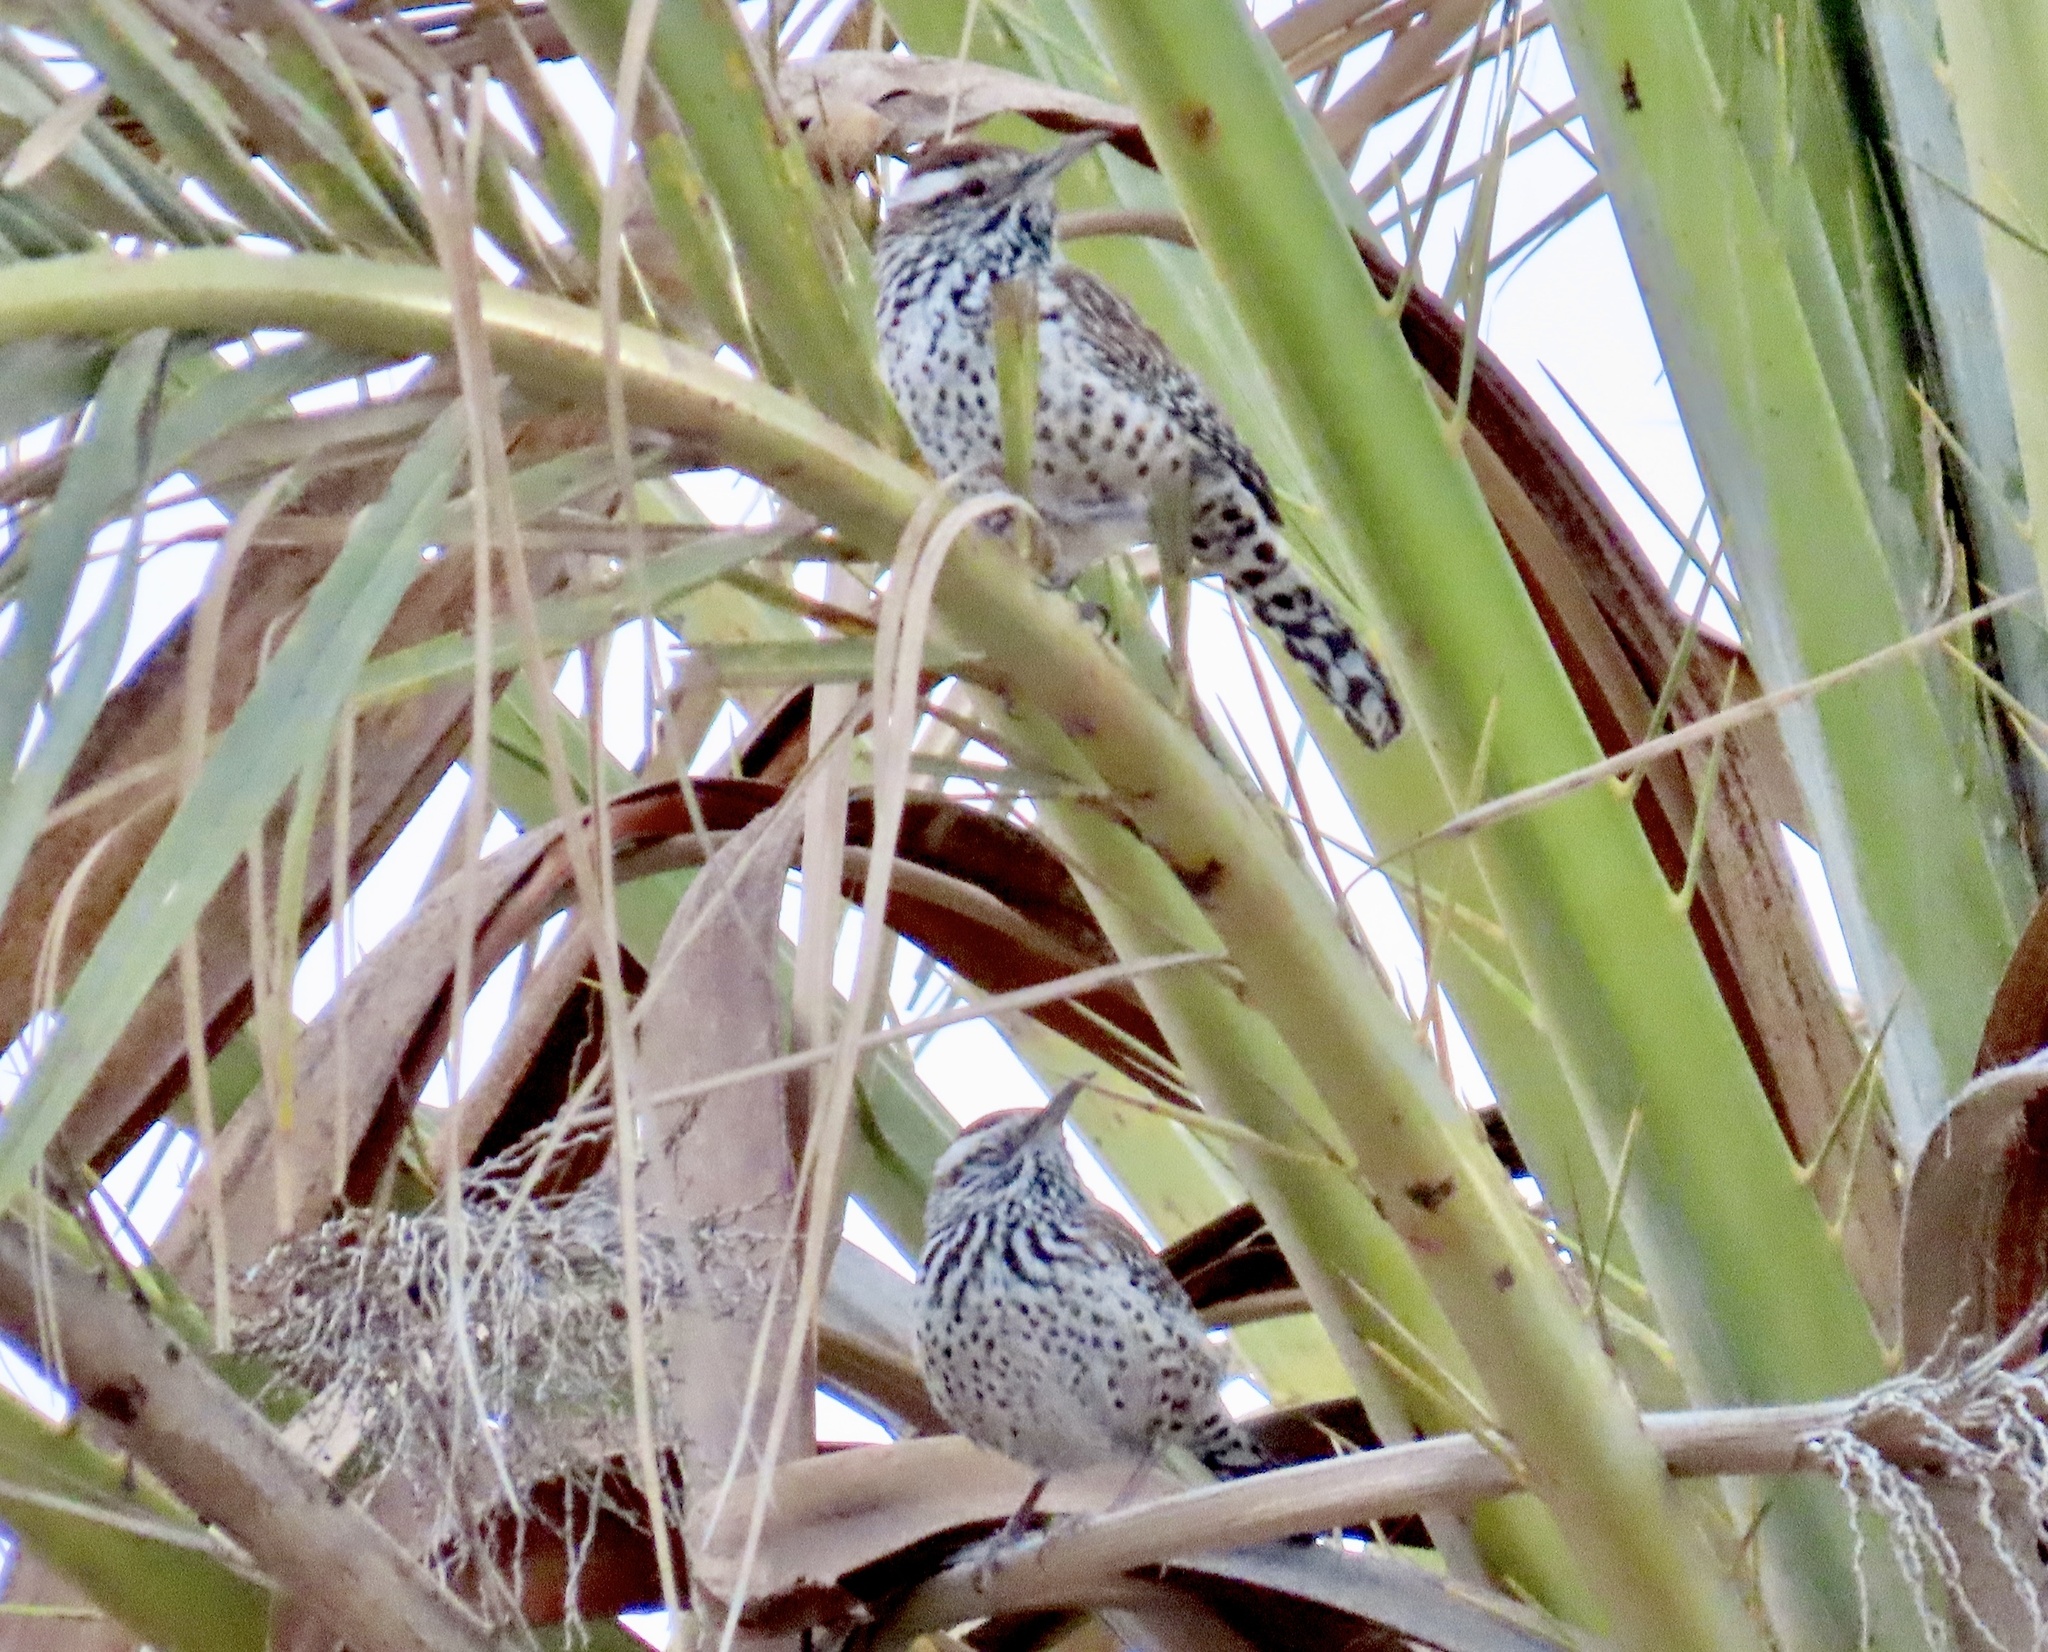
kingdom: Animalia
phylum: Chordata
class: Aves
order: Passeriformes
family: Troglodytidae
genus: Campylorhynchus
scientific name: Campylorhynchus brunneicapillus
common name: Cactus wren
